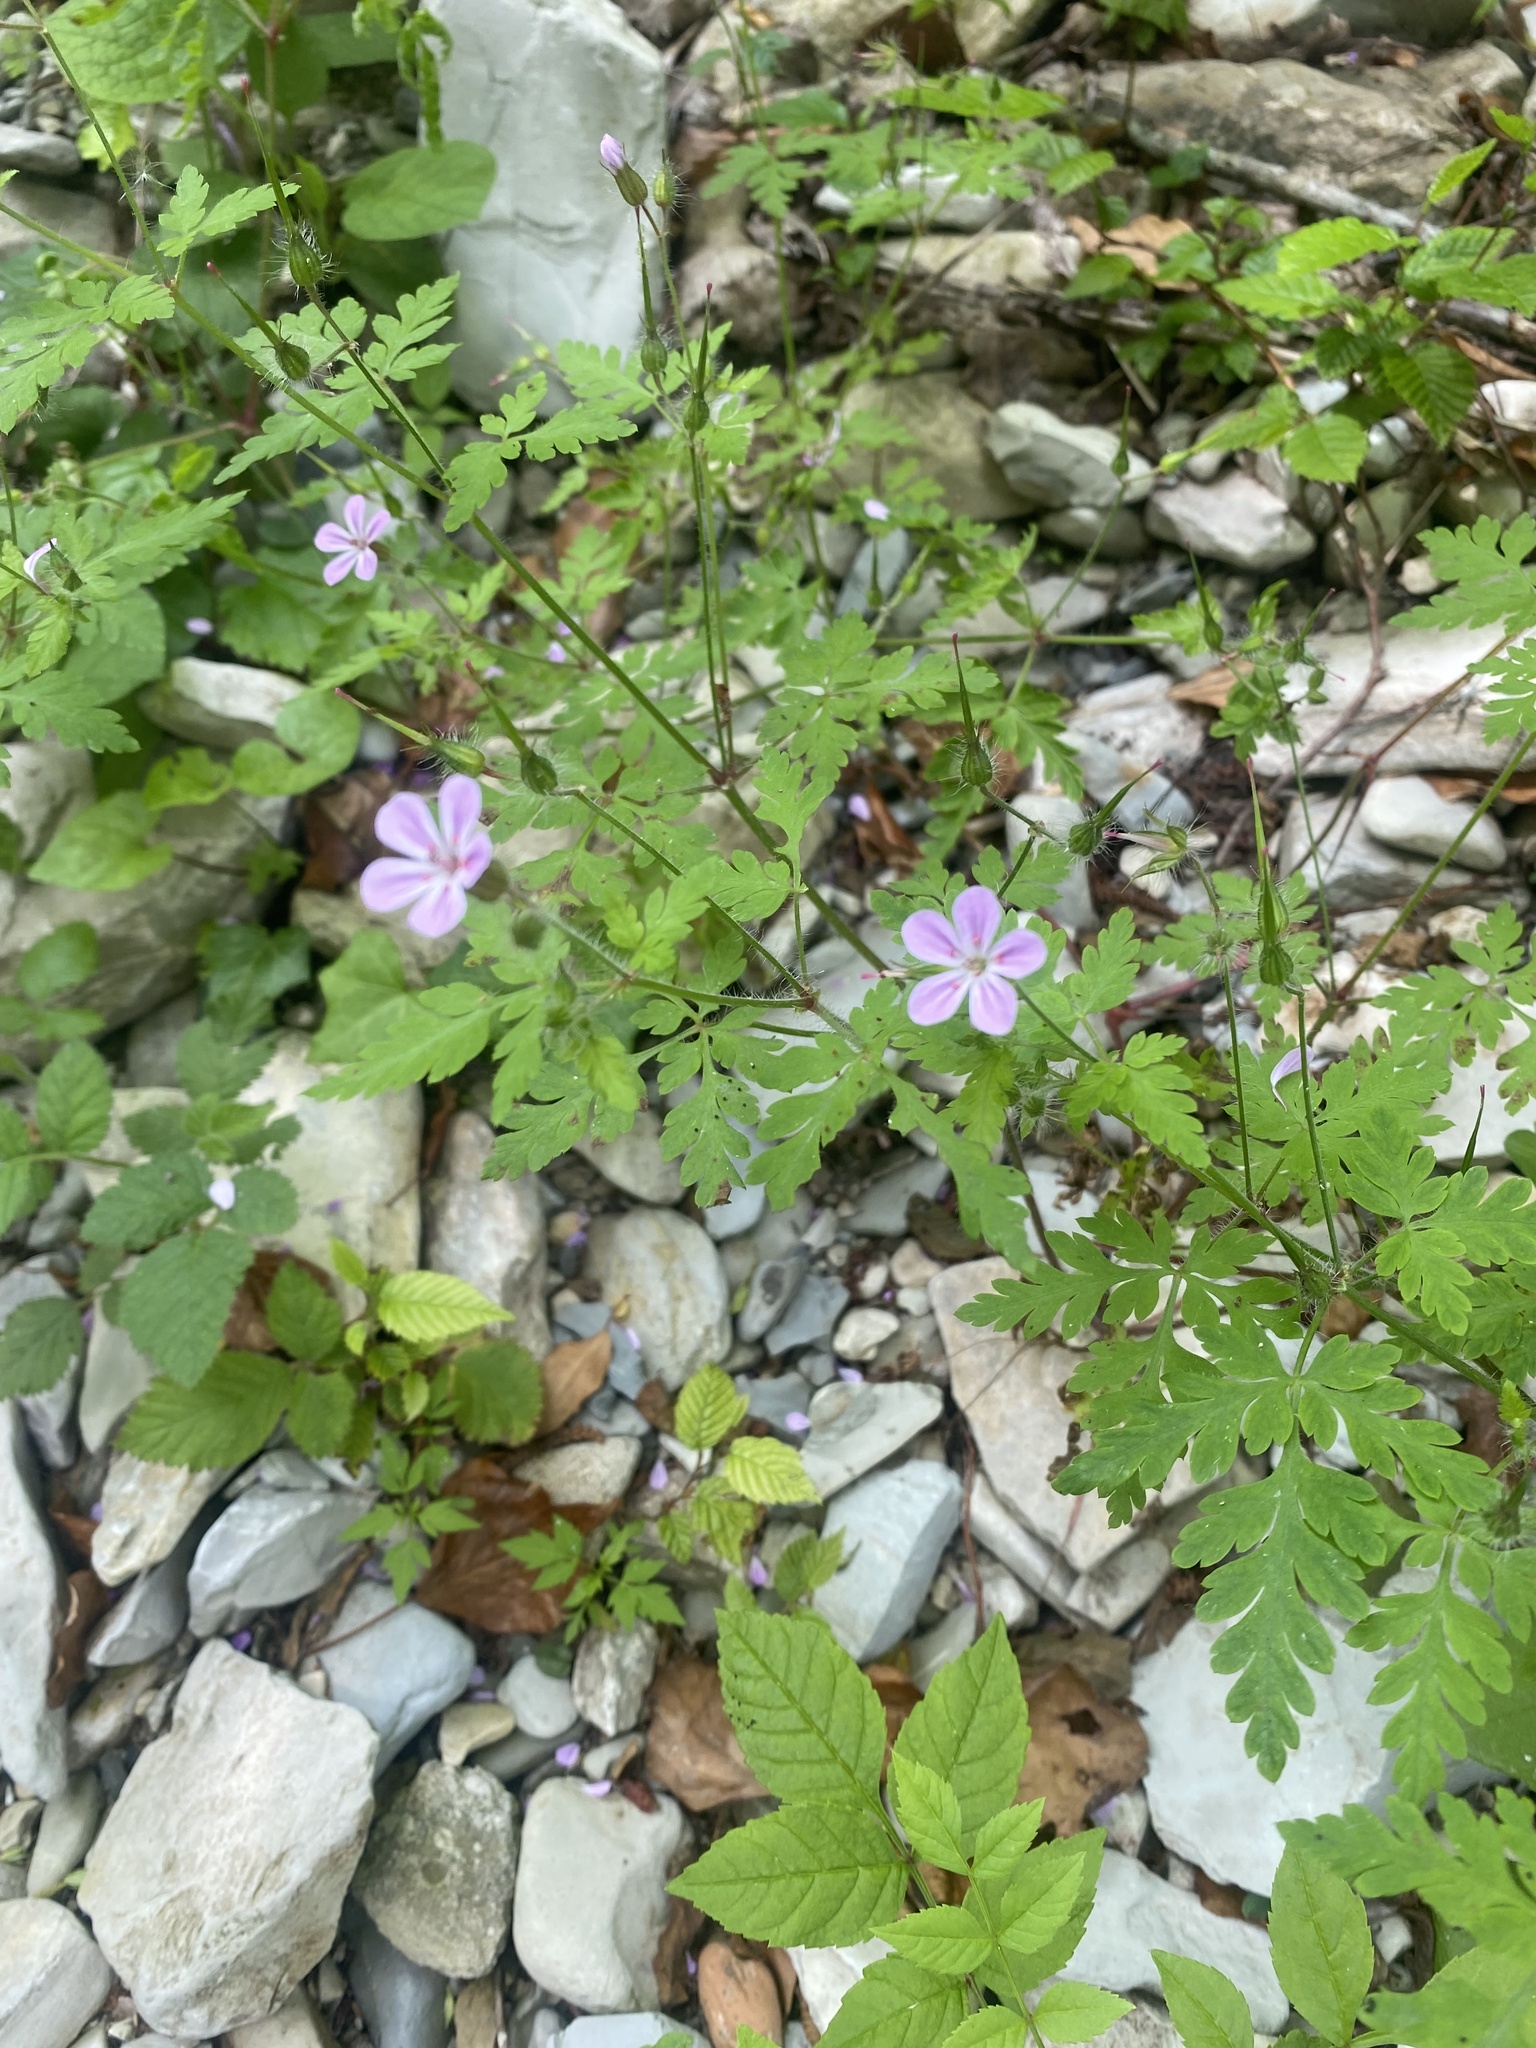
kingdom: Plantae
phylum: Tracheophyta
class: Magnoliopsida
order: Geraniales
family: Geraniaceae
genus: Geranium
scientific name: Geranium robertianum
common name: Herb-robert
